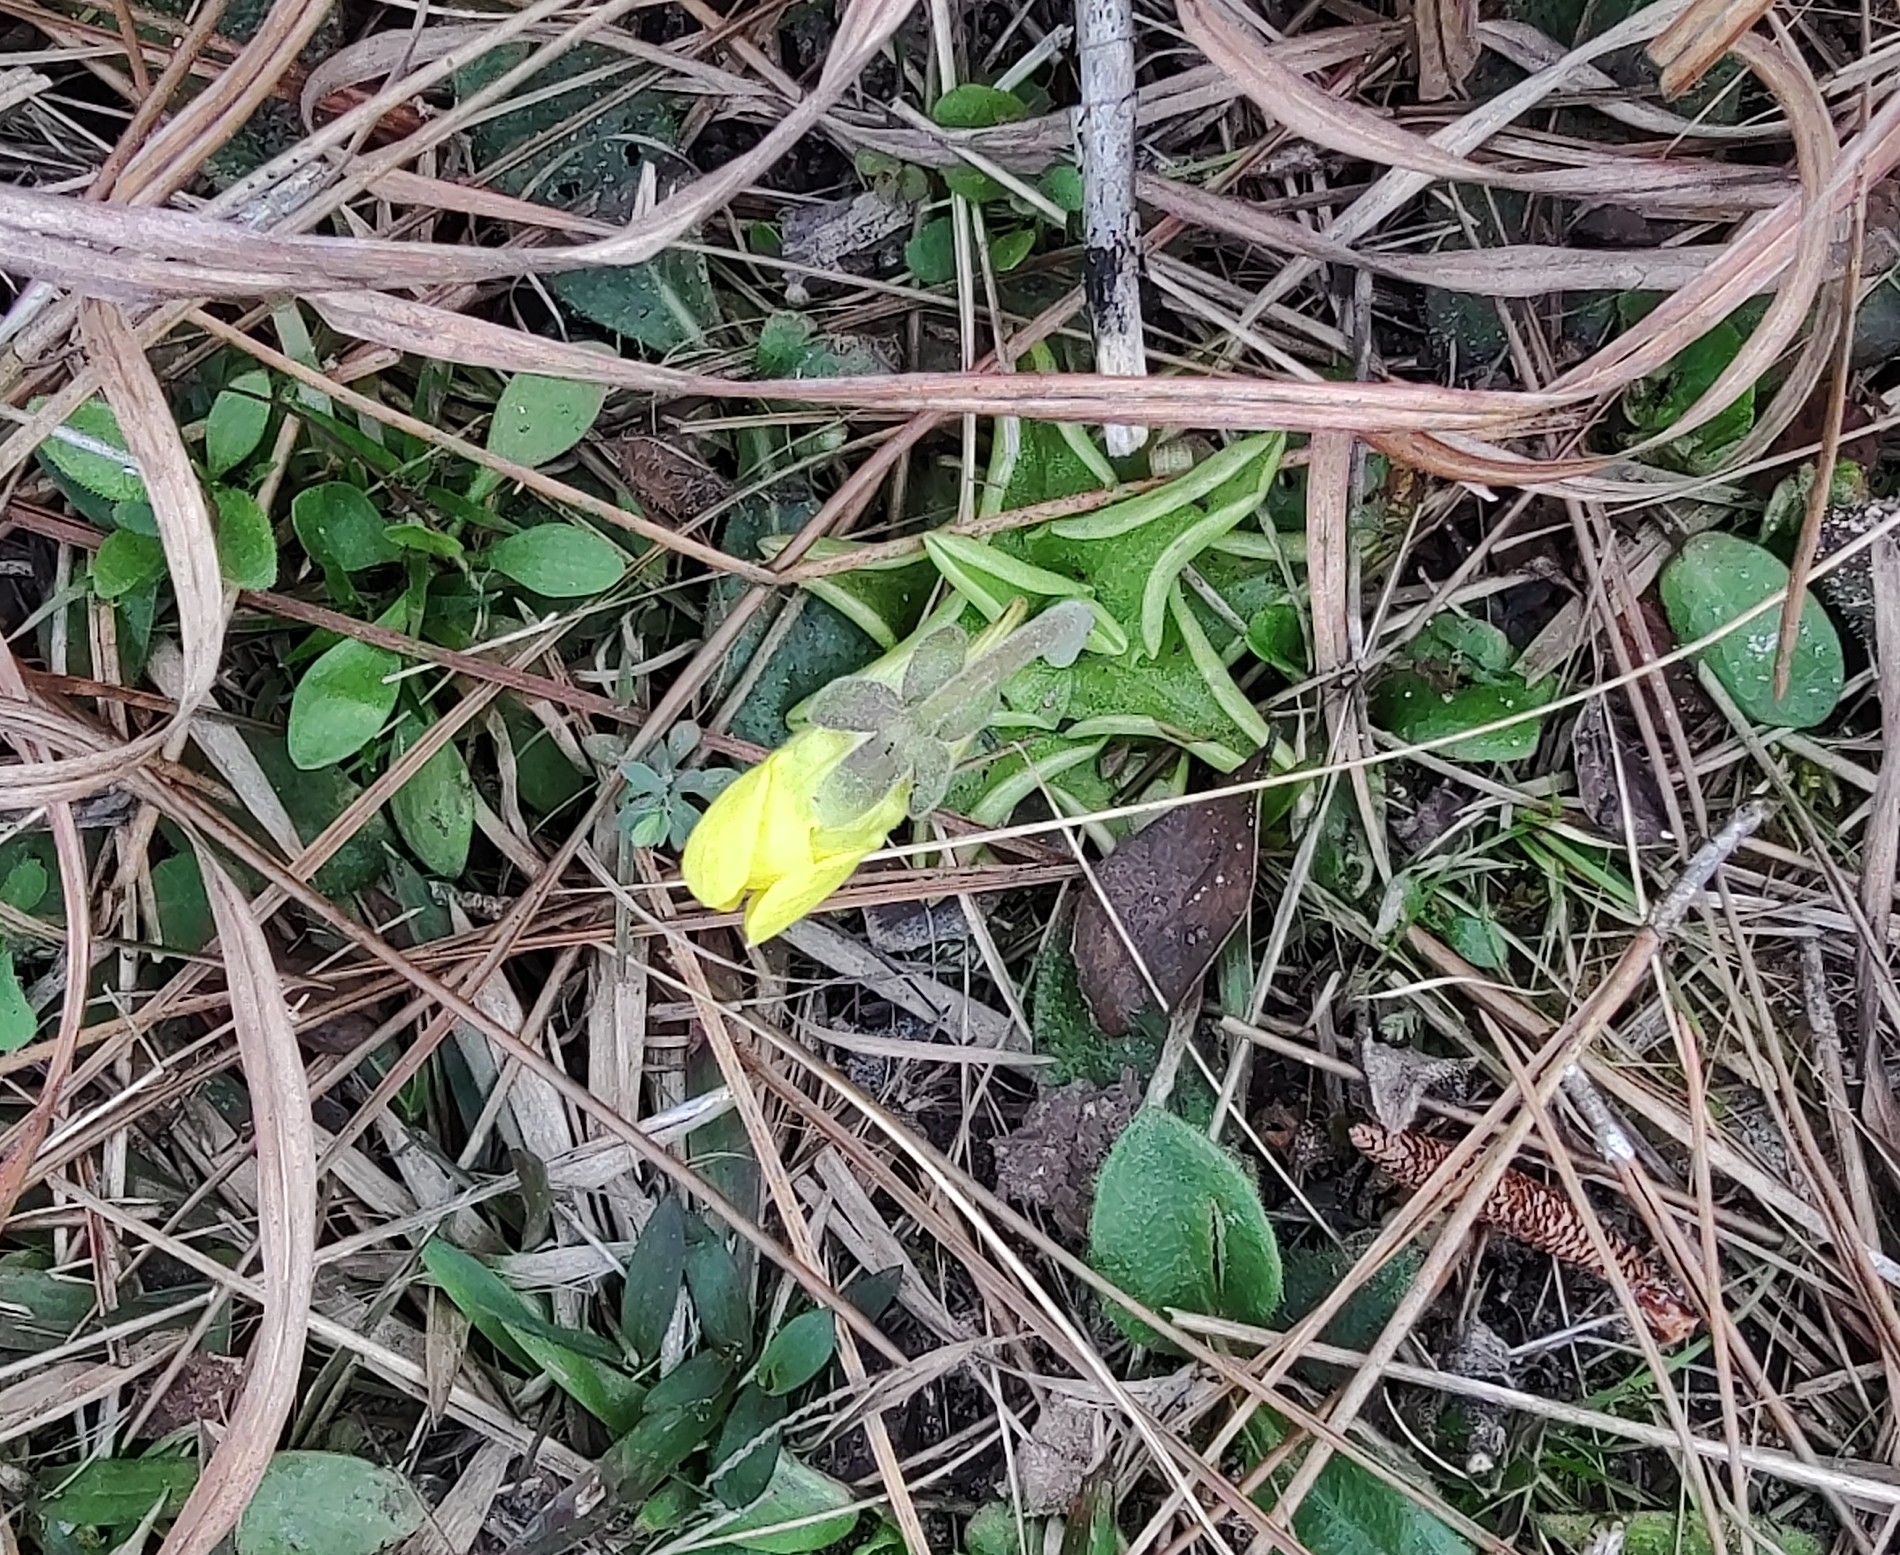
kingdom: Plantae
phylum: Tracheophyta
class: Magnoliopsida
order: Lamiales
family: Lentibulariaceae
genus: Pinguicula
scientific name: Pinguicula lutea
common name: Yellow butterwort
